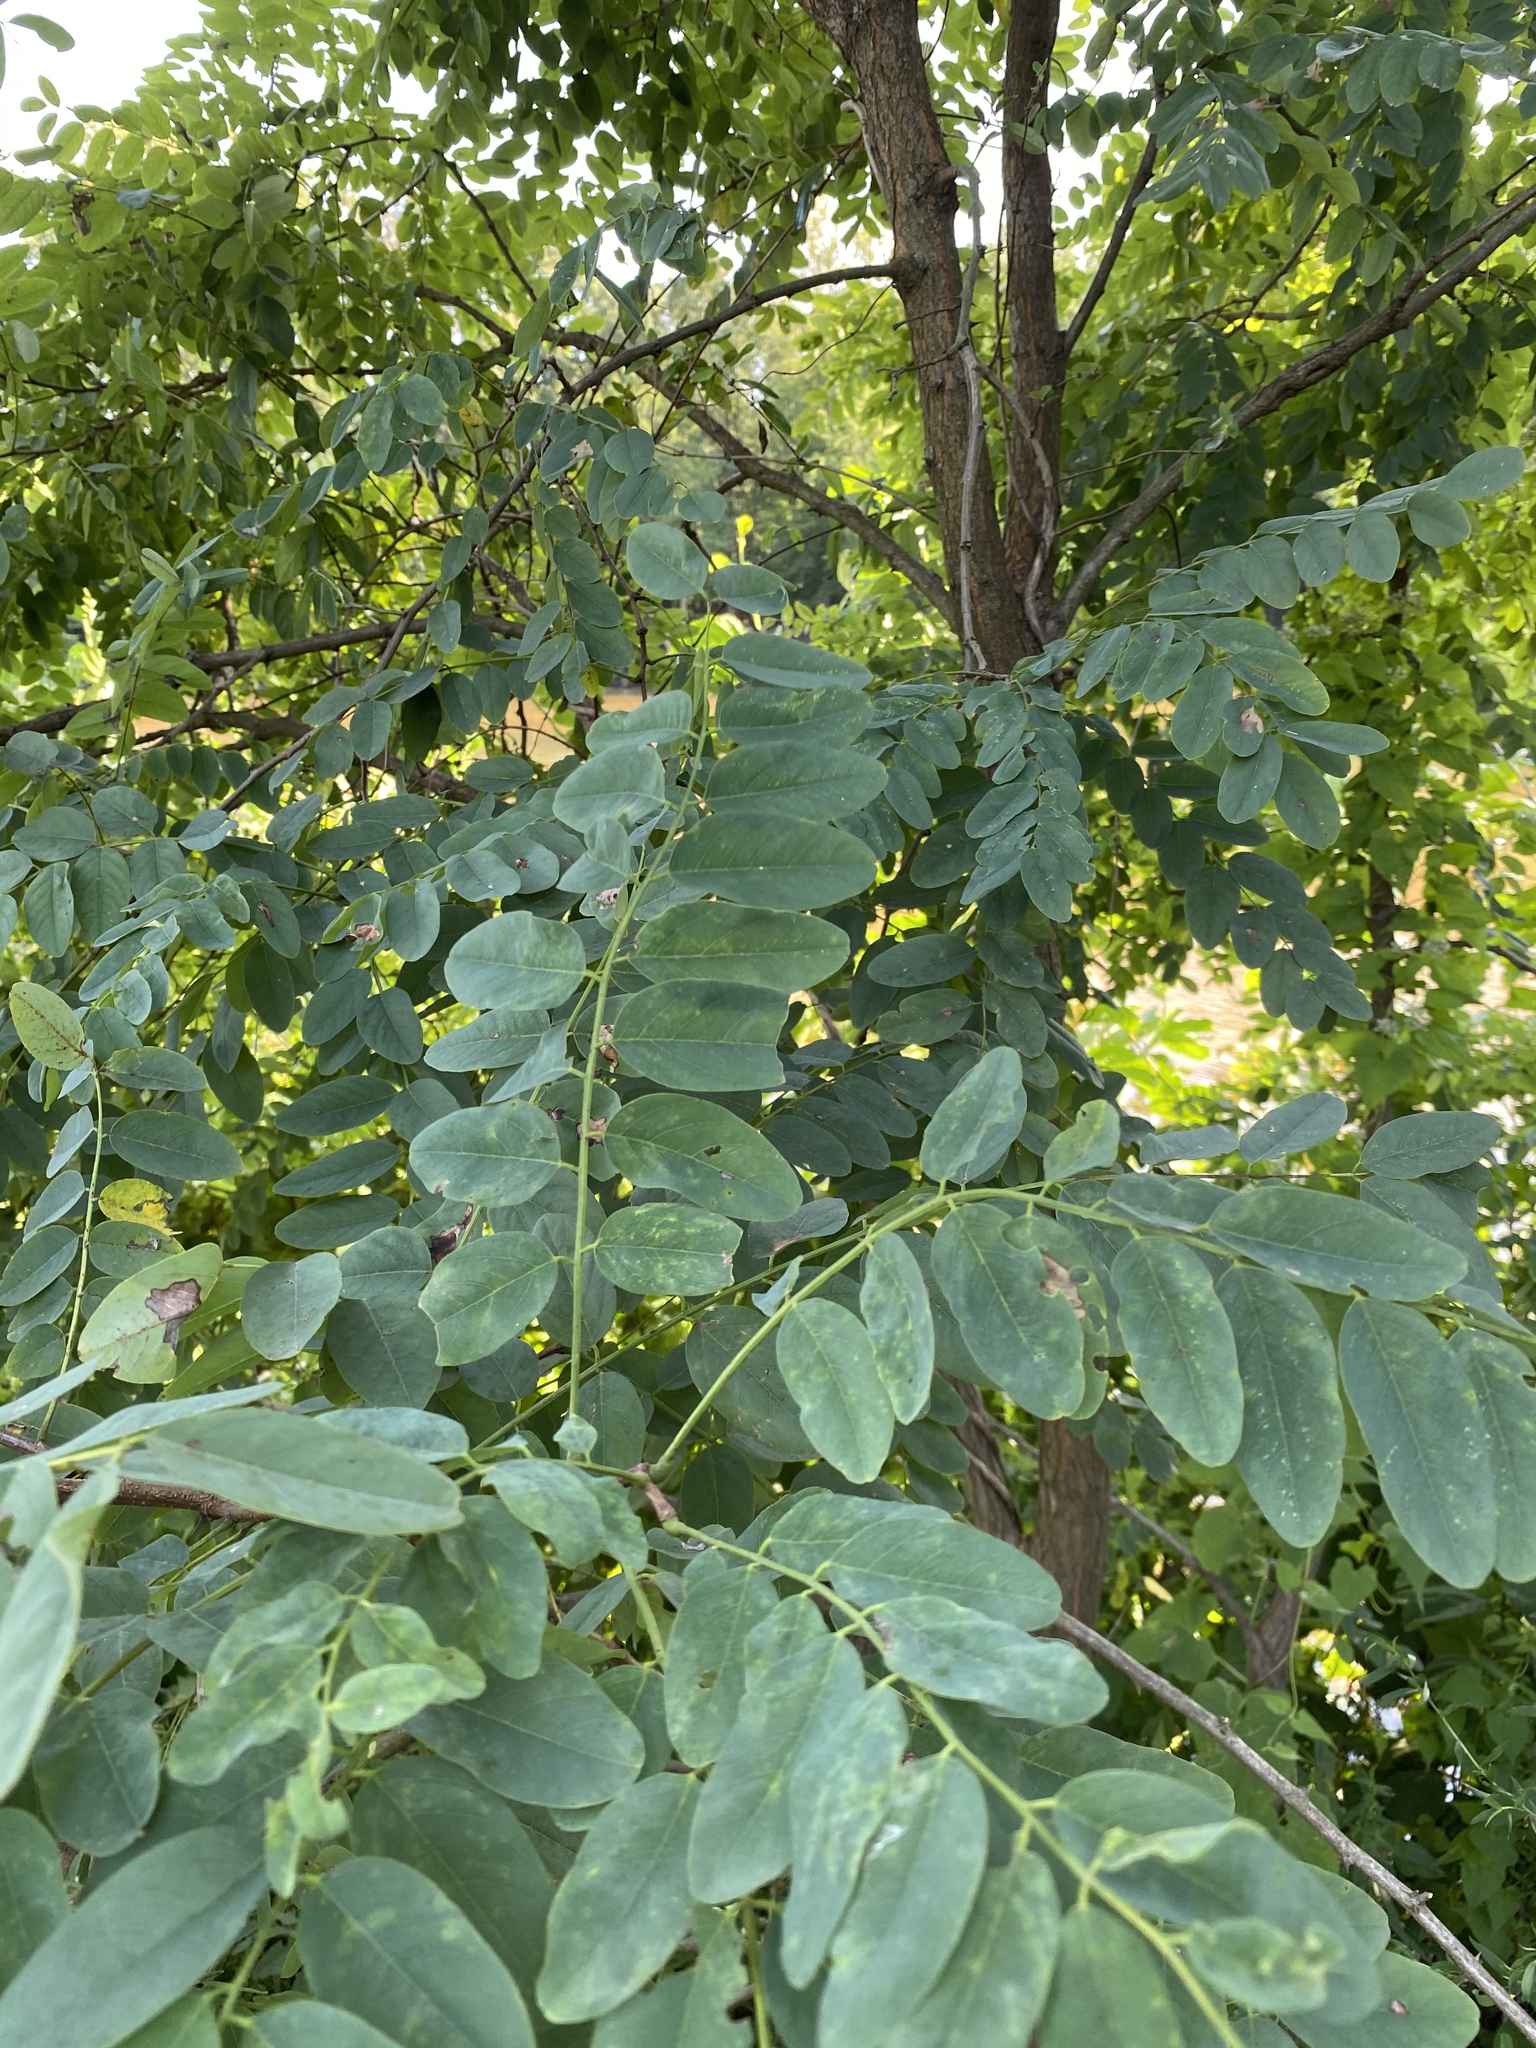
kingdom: Plantae
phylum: Tracheophyta
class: Magnoliopsida
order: Fabales
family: Fabaceae
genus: Robinia
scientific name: Robinia pseudoacacia
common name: Black locust
